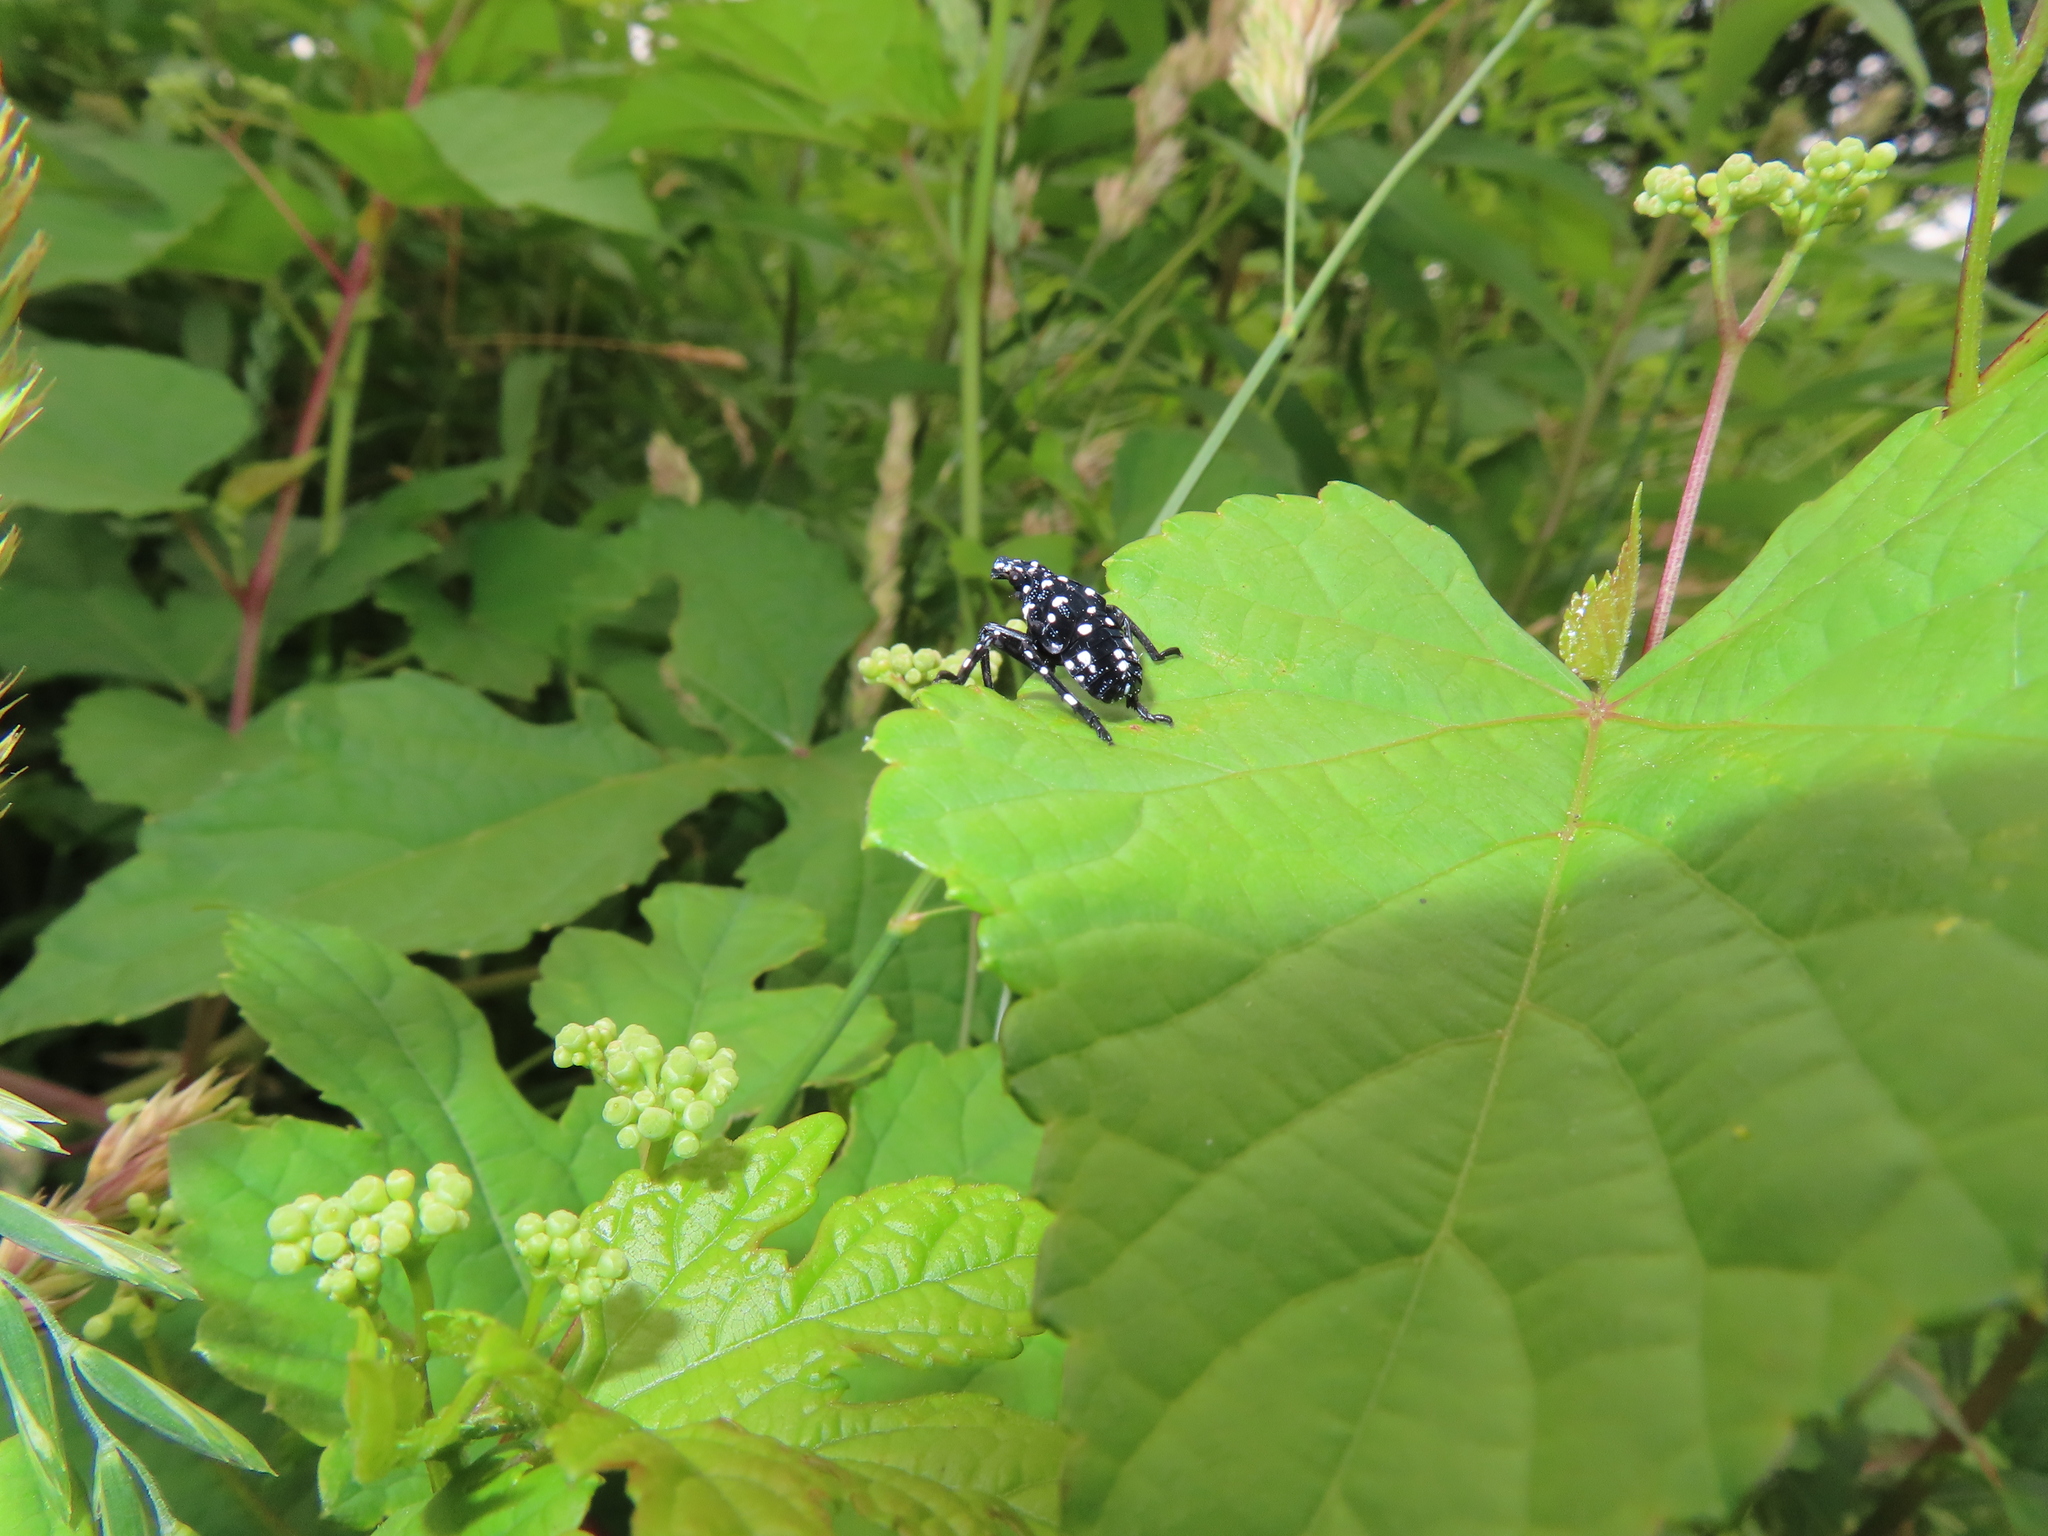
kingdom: Animalia
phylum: Arthropoda
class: Insecta
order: Hemiptera
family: Fulgoridae
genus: Lycorma
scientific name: Lycorma delicatula
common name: Spotted lanternfly
